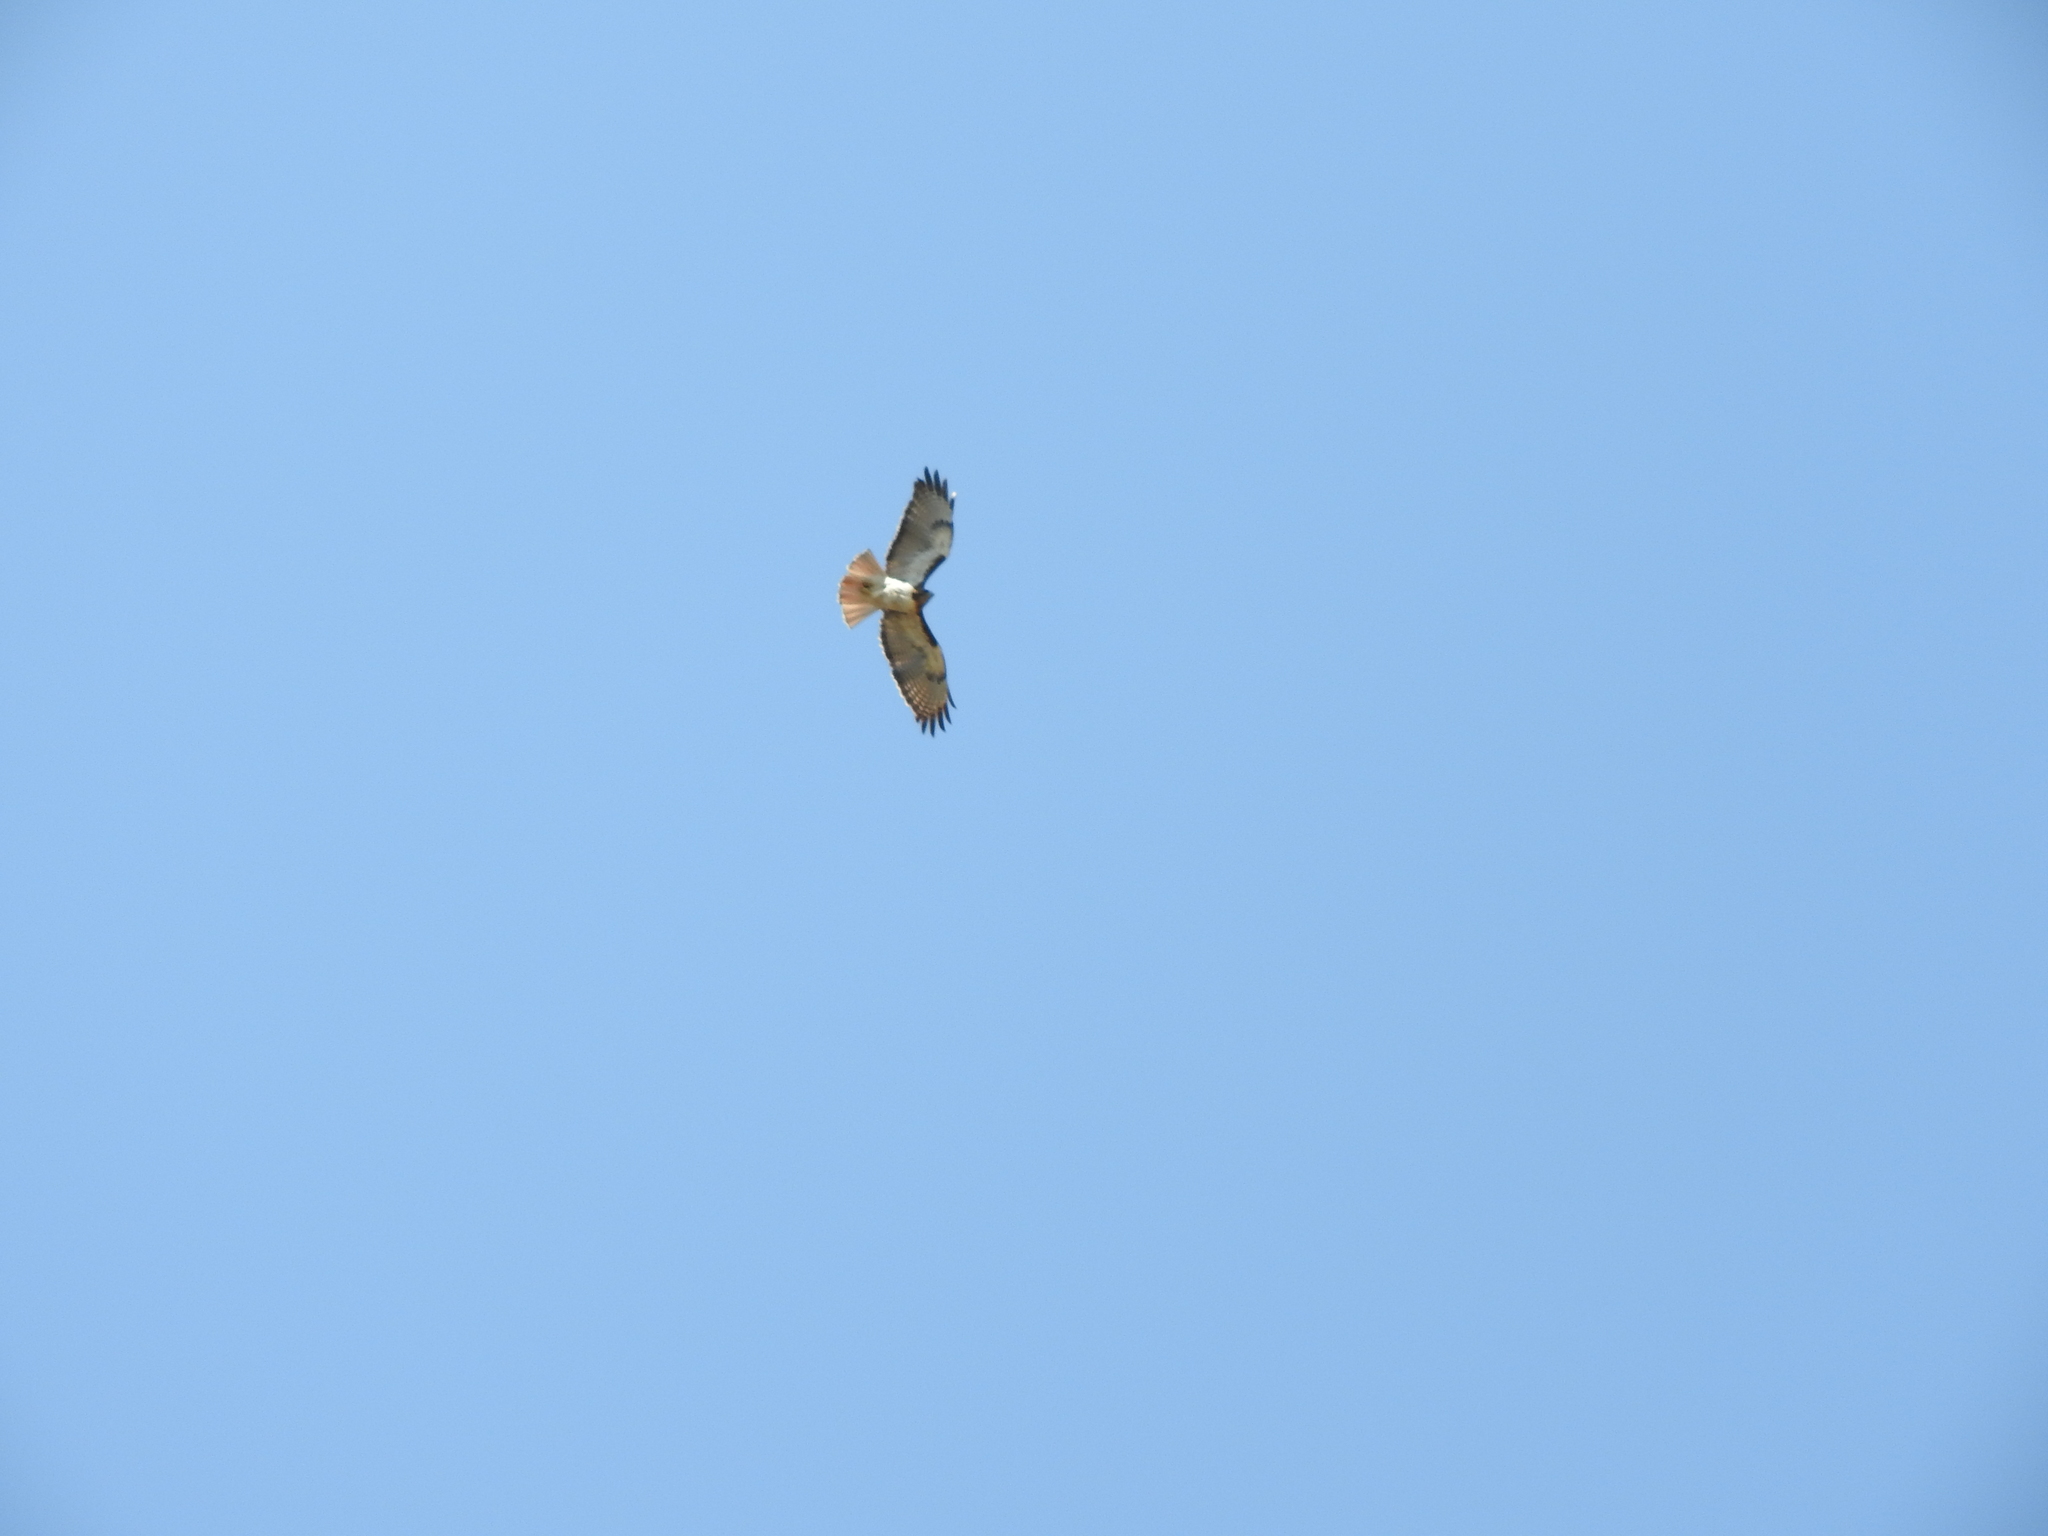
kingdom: Animalia
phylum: Chordata
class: Aves
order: Accipitriformes
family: Accipitridae
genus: Buteo
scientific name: Buteo jamaicensis
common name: Red-tailed hawk
